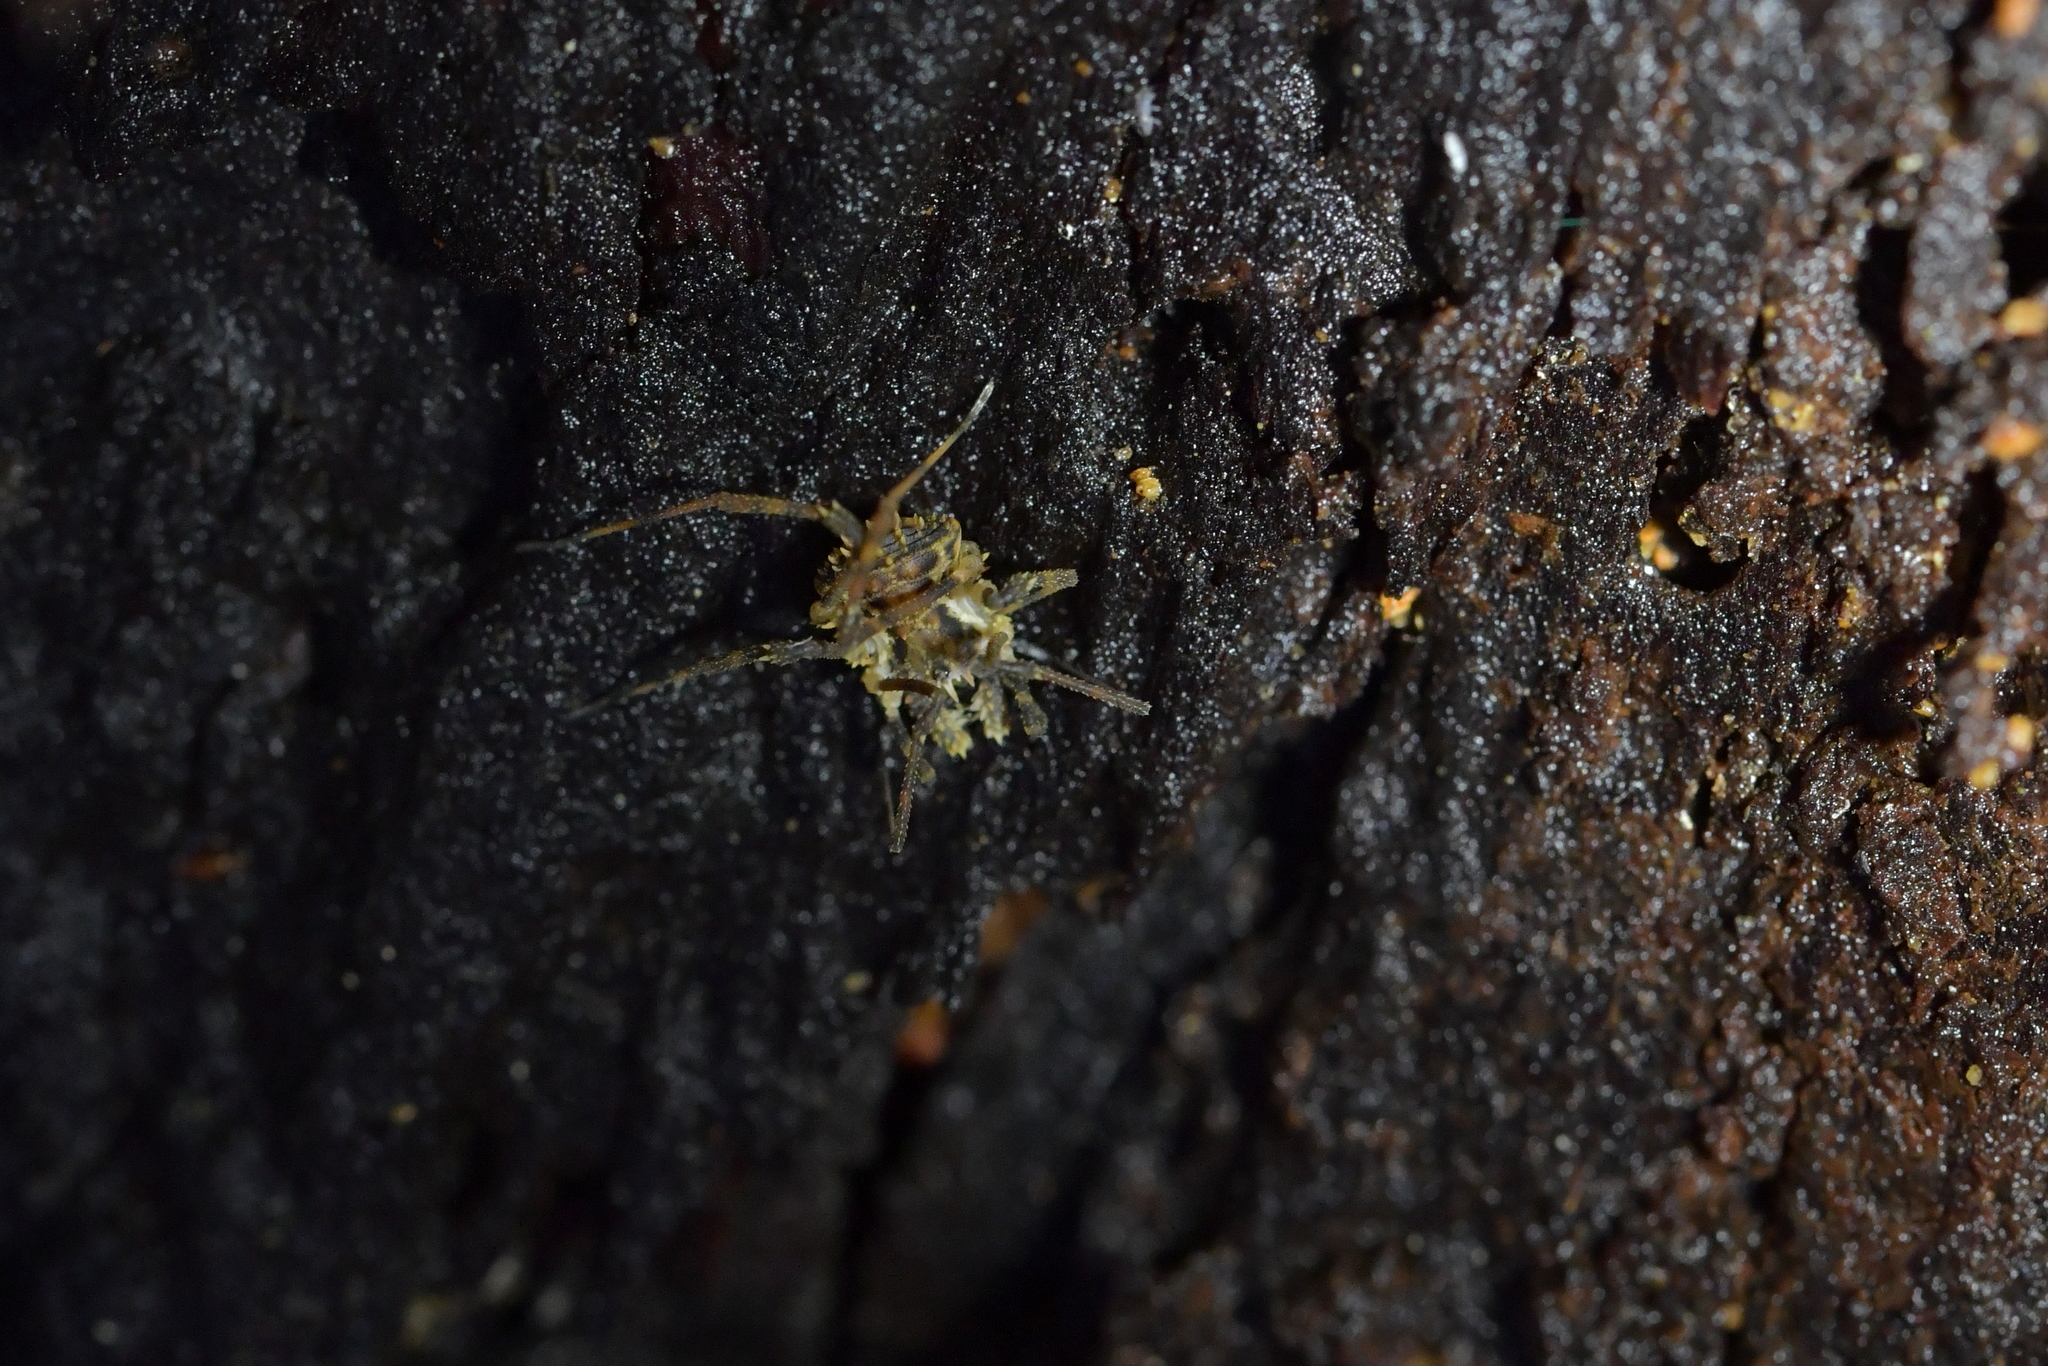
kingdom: Animalia
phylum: Arthropoda
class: Arachnida
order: Opiliones
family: Triaenonychidae
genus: Algidia
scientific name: Algidia nigriflava
